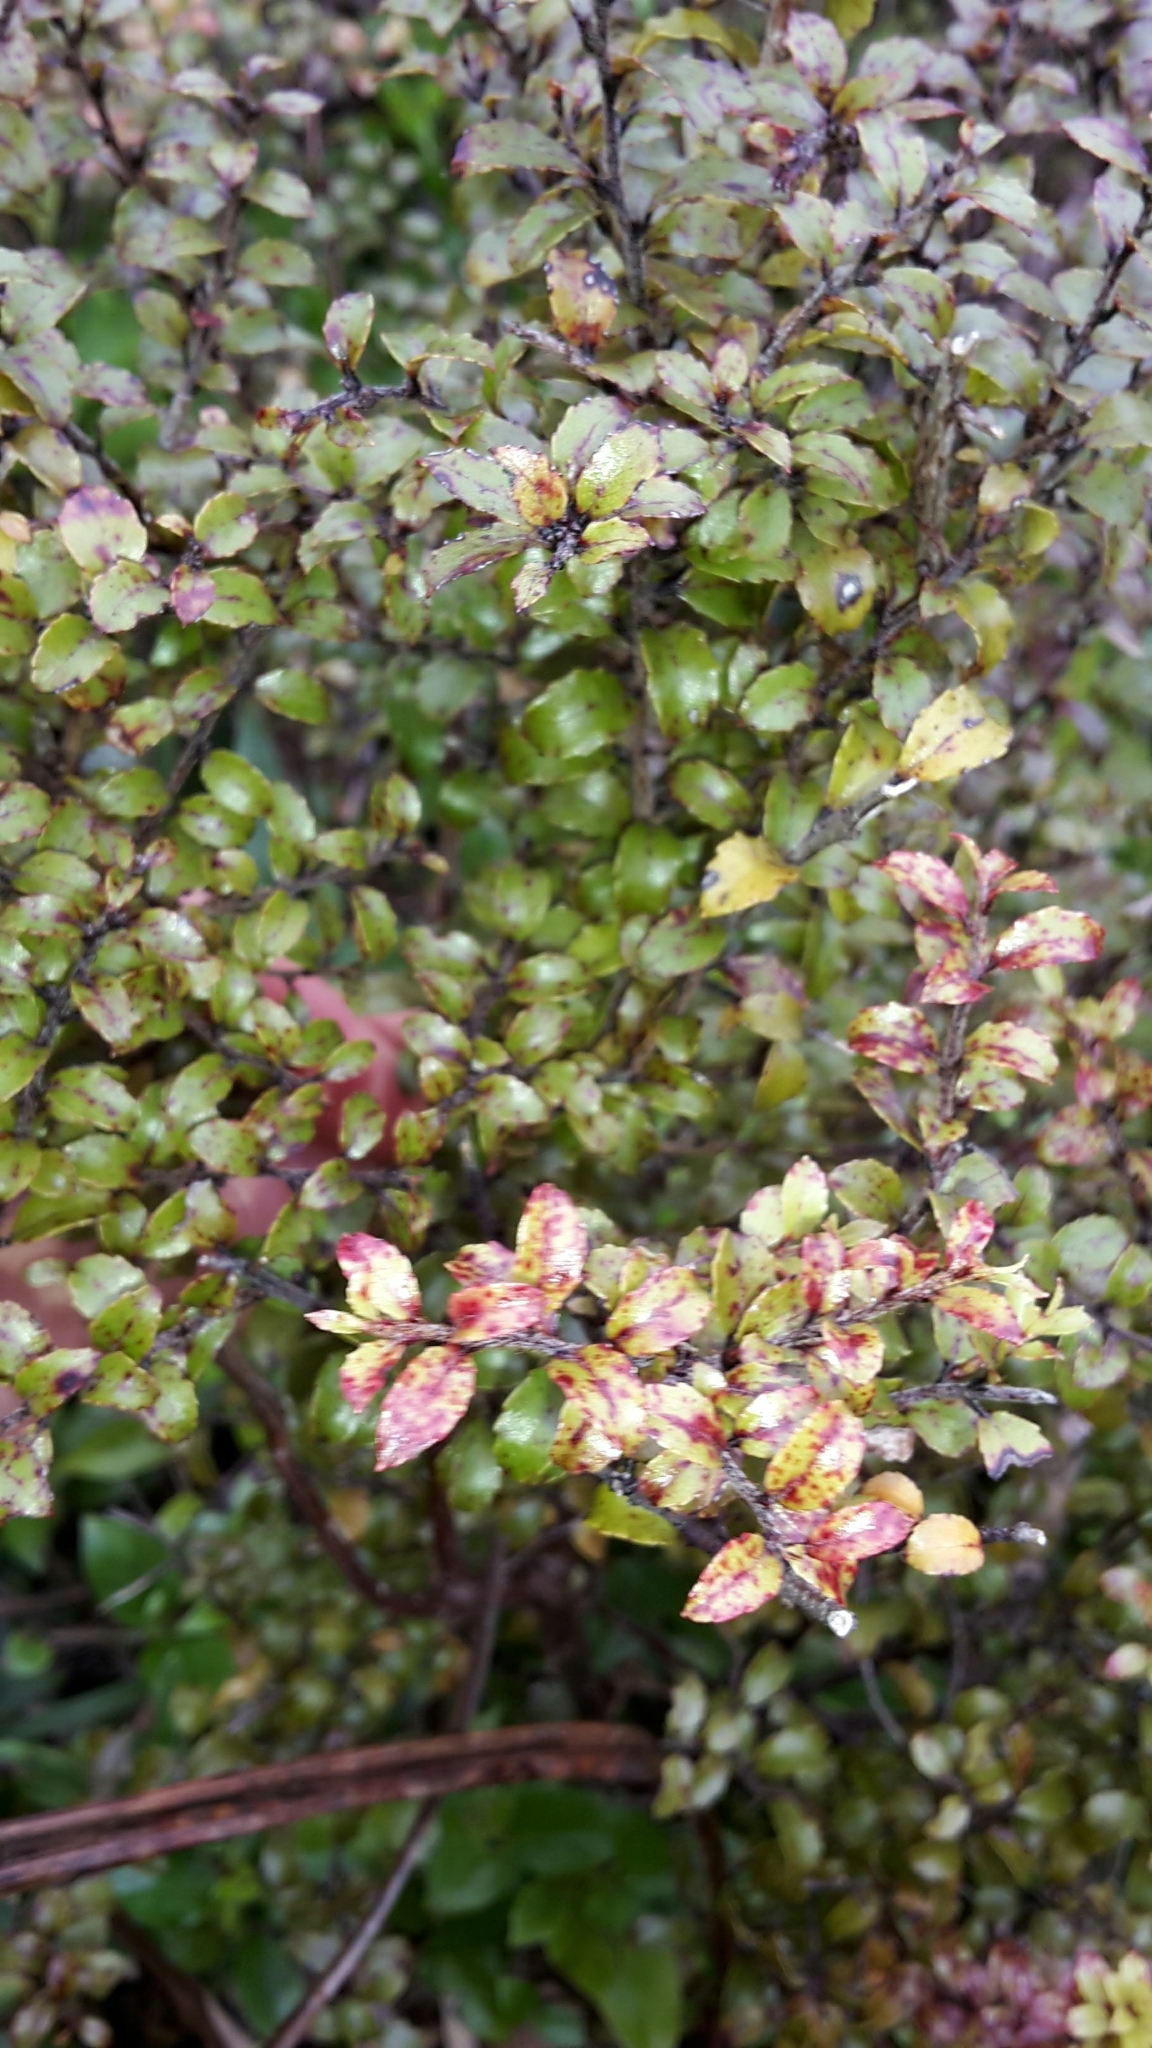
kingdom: Plantae
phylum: Tracheophyta
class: Magnoliopsida
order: Ericales
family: Ericaceae
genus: Gaultheria
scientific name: Gaultheria antipoda
